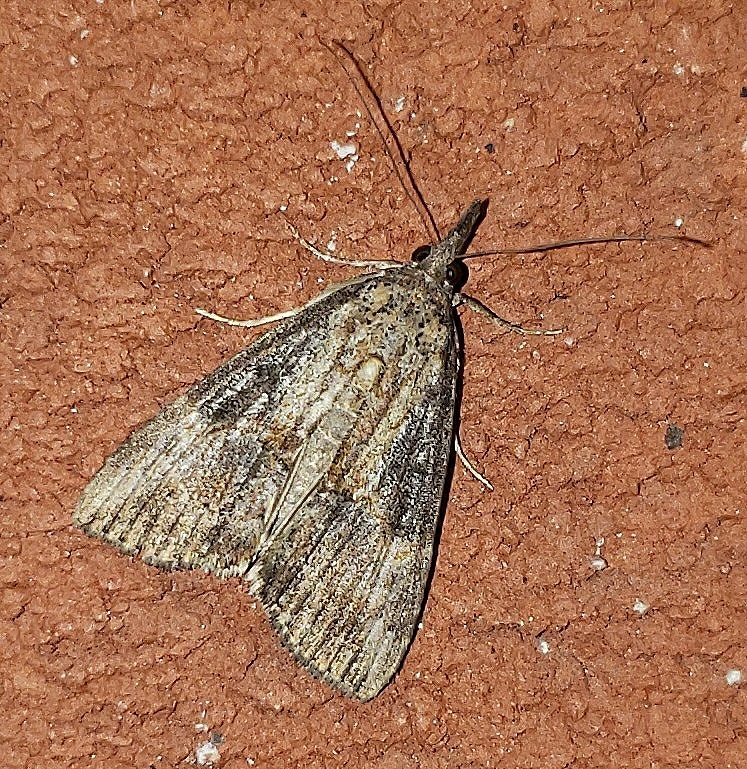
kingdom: Animalia
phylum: Arthropoda
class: Insecta
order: Lepidoptera
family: Erebidae
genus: Hypena
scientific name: Hypena scabra
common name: Green cloverworm
